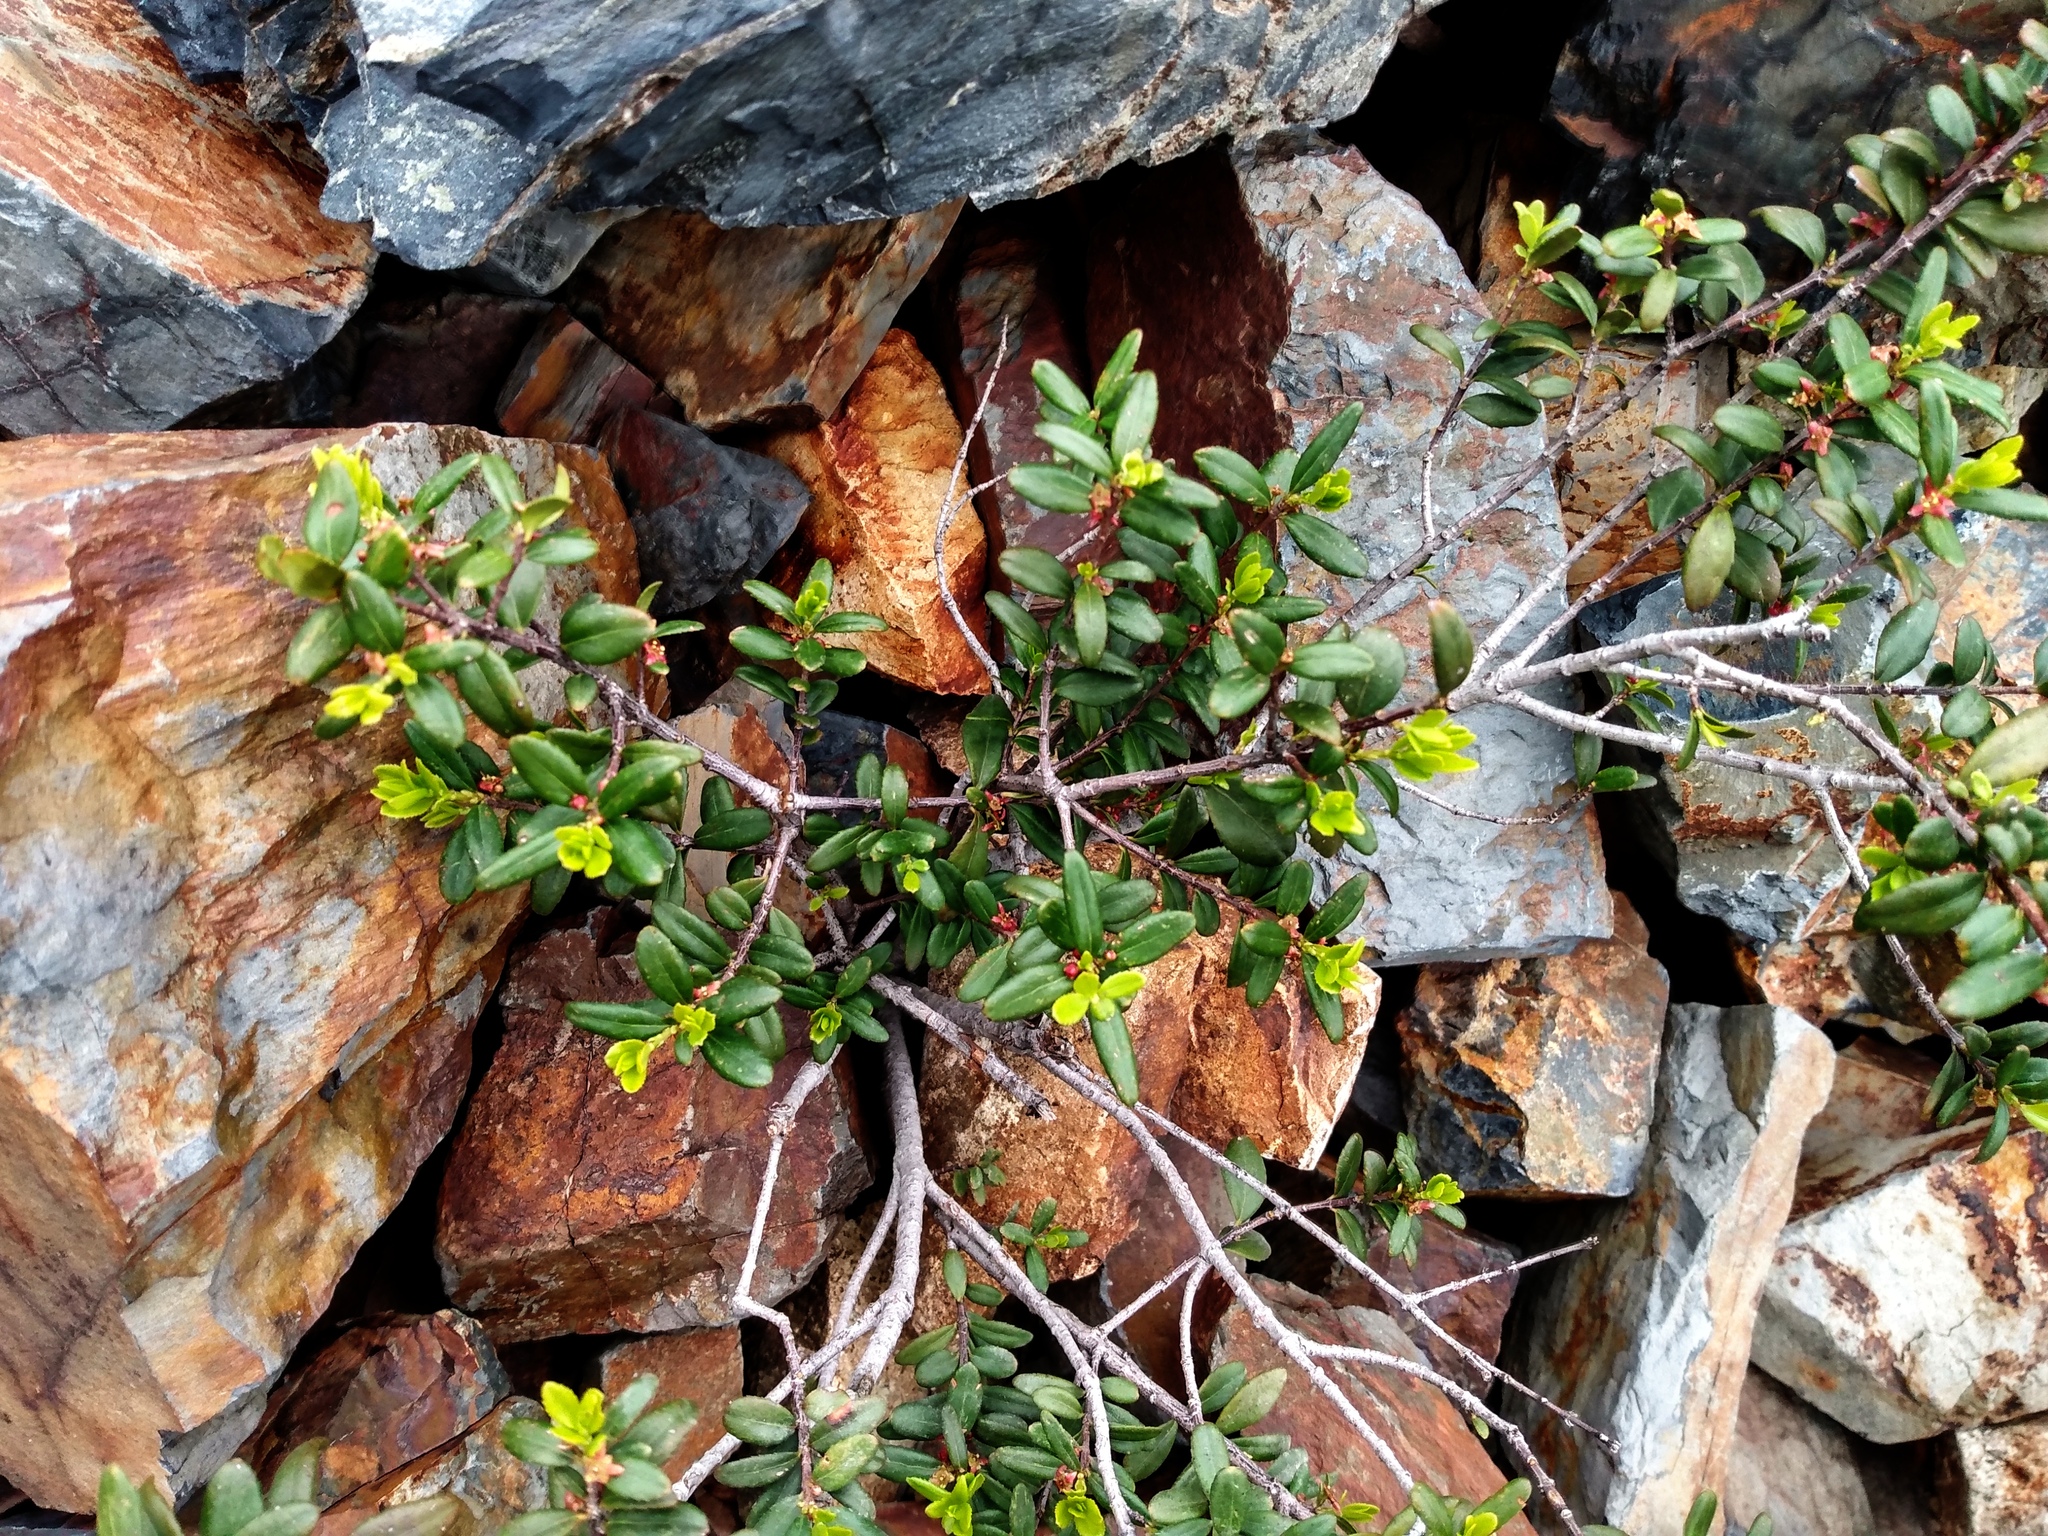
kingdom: Plantae
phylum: Tracheophyta
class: Magnoliopsida
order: Celastrales
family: Celastraceae
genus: Paxistima
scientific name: Paxistima myrsinites
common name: Mountain-lover
